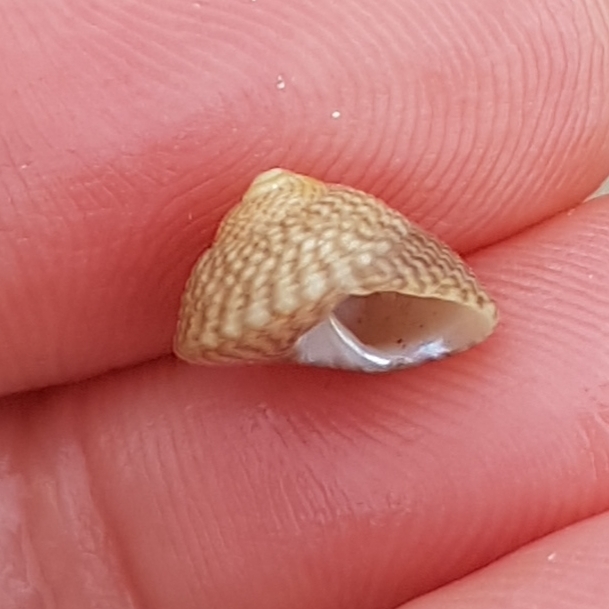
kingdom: Animalia
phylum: Mollusca
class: Gastropoda
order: Trochida
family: Trochidae
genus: Steromphala
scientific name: Steromphala cineraria
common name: Grey top shell
